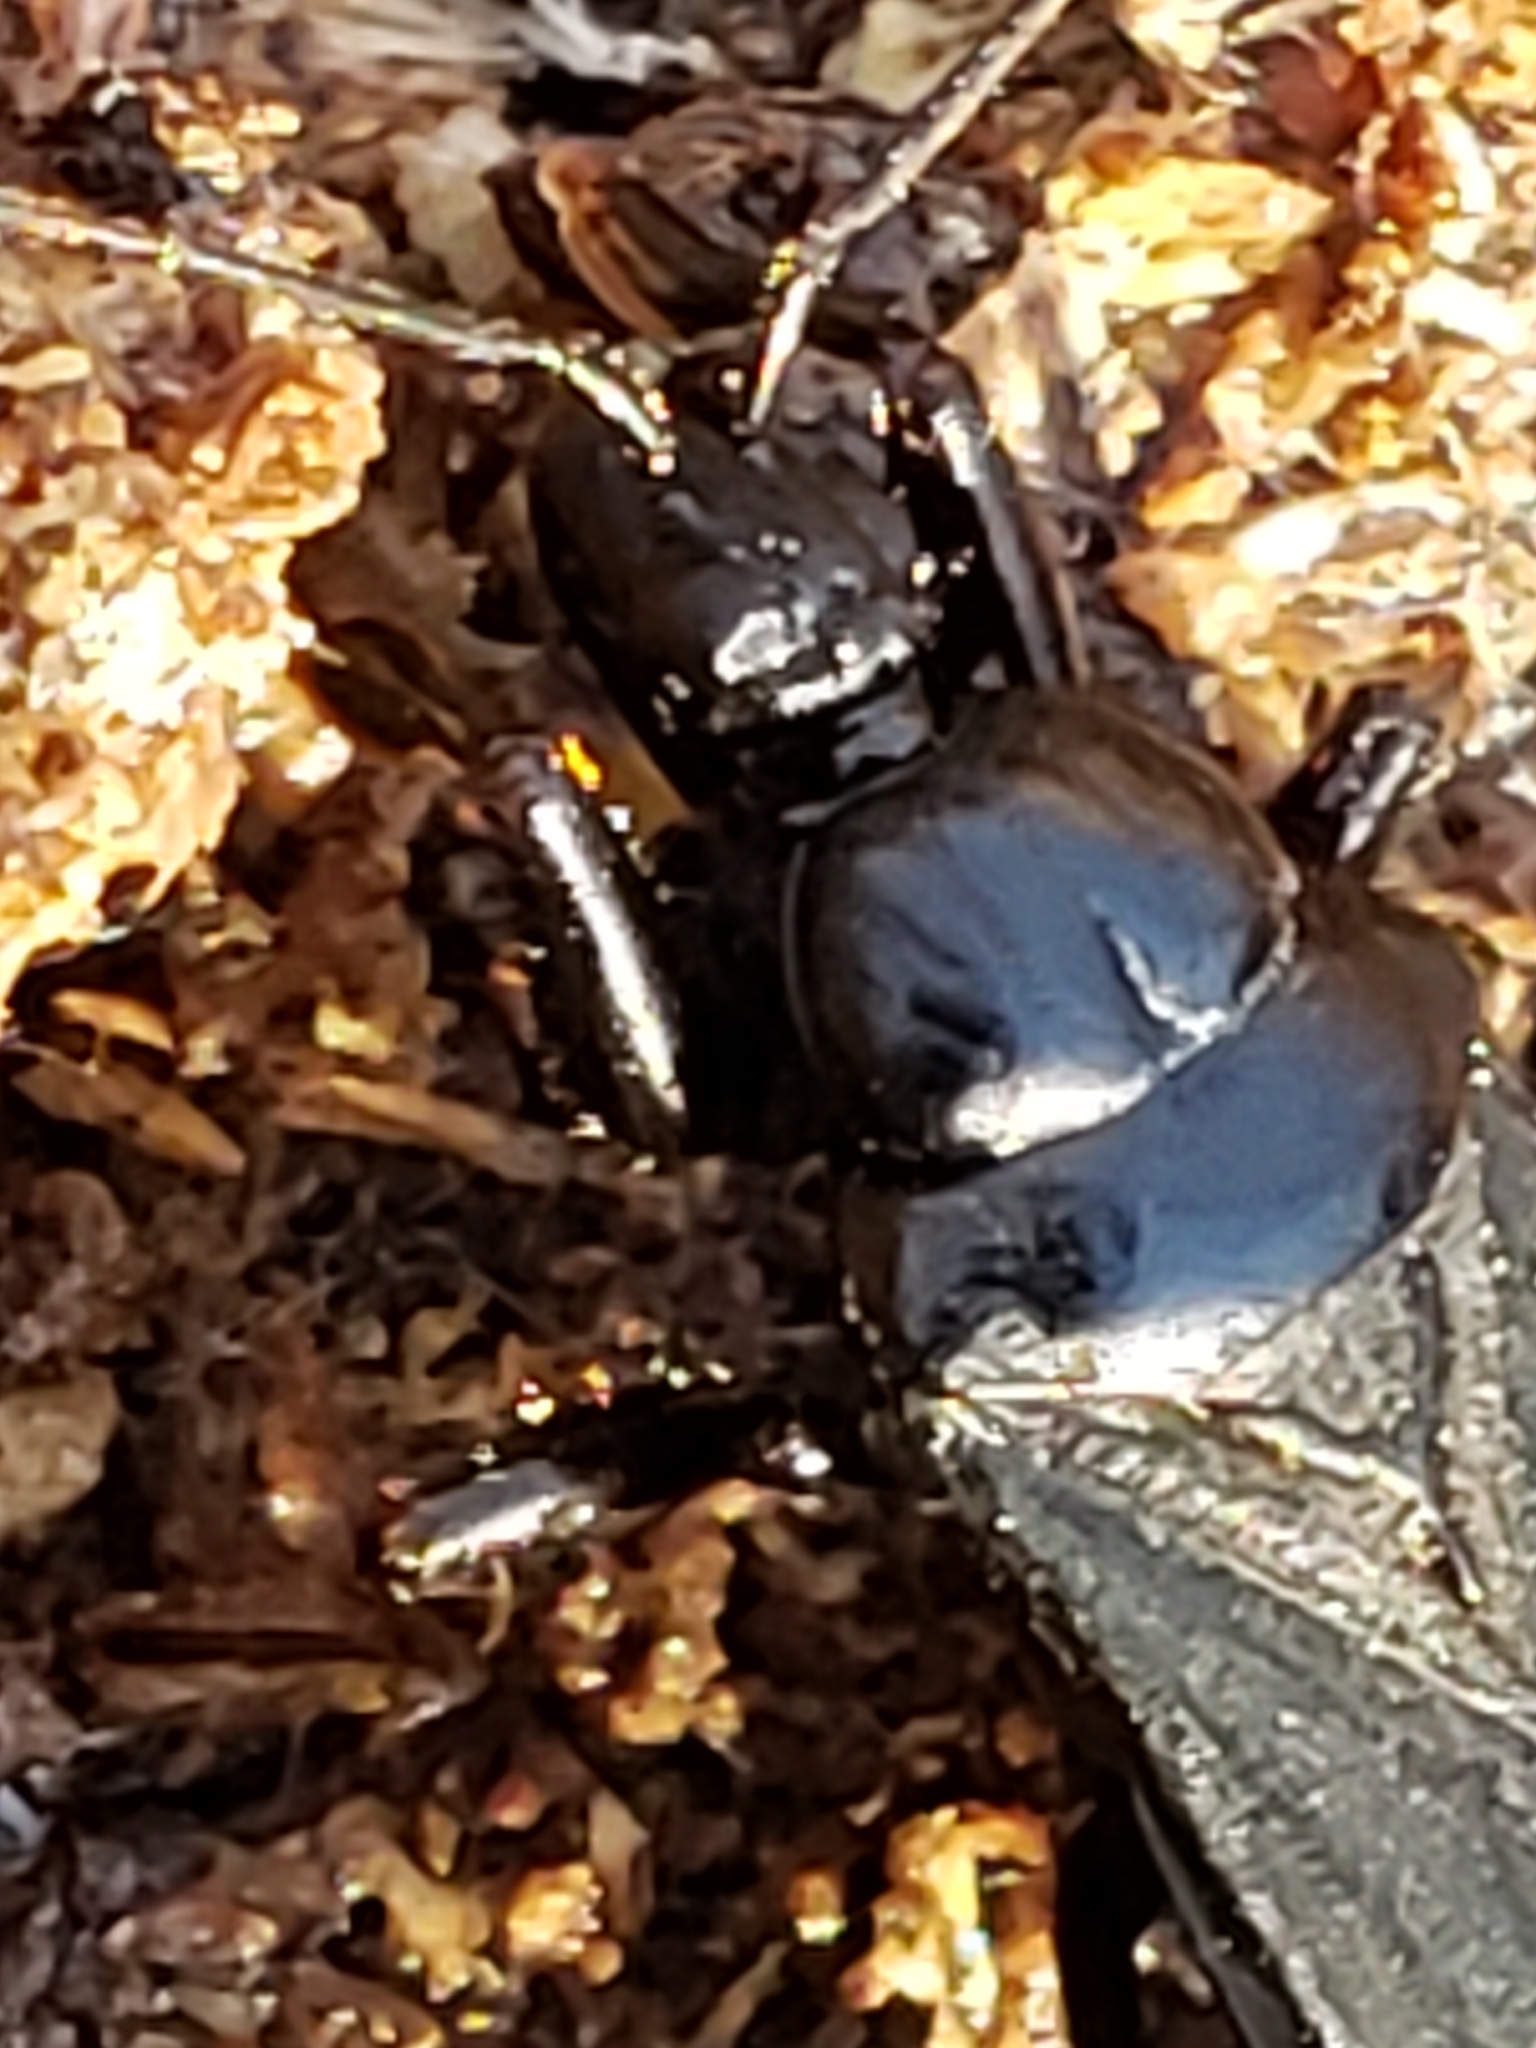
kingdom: Animalia
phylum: Arthropoda
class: Insecta
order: Hemiptera
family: Reduviidae
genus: Melanolestes
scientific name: Melanolestes picipes
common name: Assassin bug
